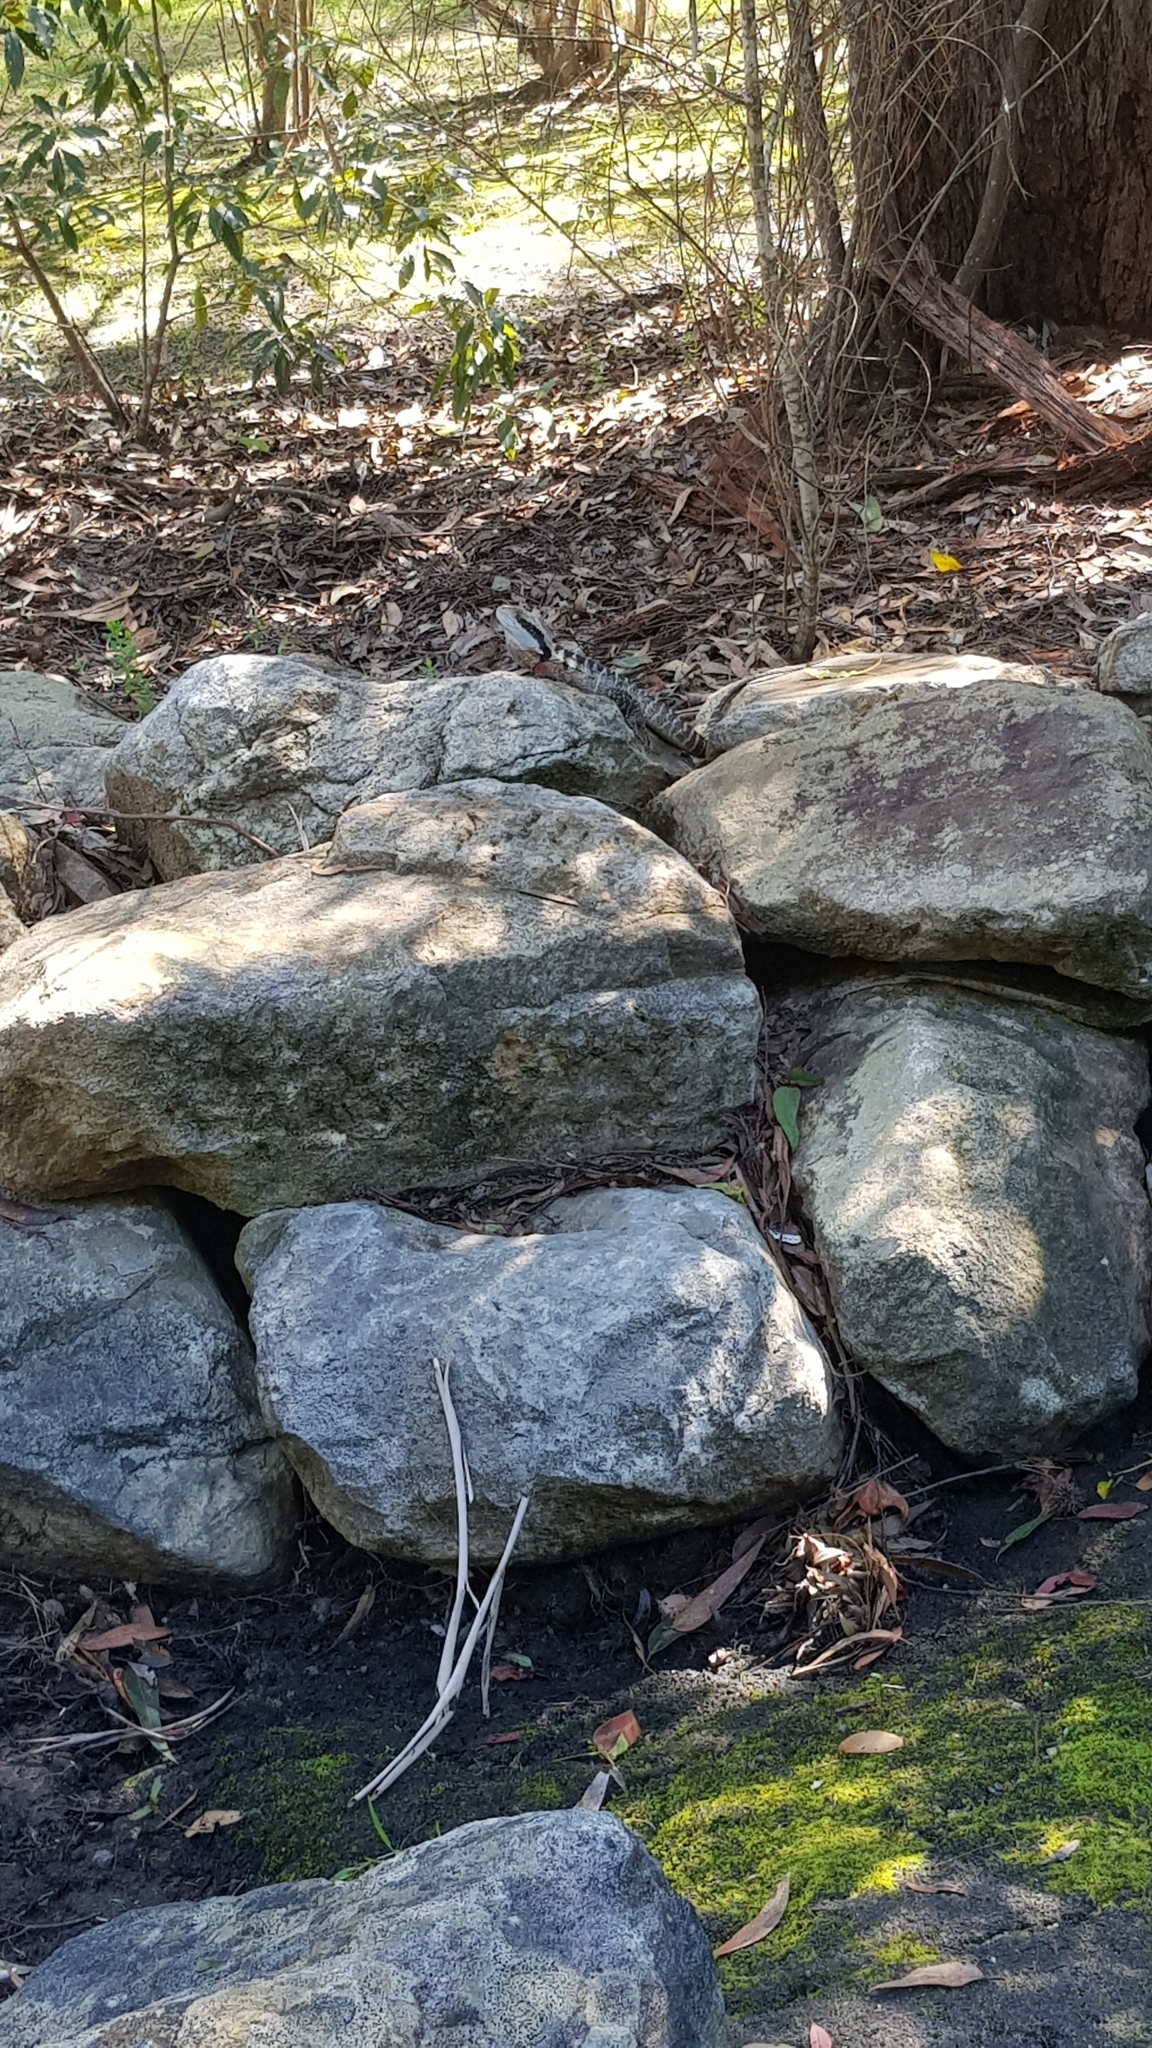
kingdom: Animalia
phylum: Chordata
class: Squamata
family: Agamidae
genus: Intellagama
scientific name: Intellagama lesueurii
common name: Eastern water dragon
